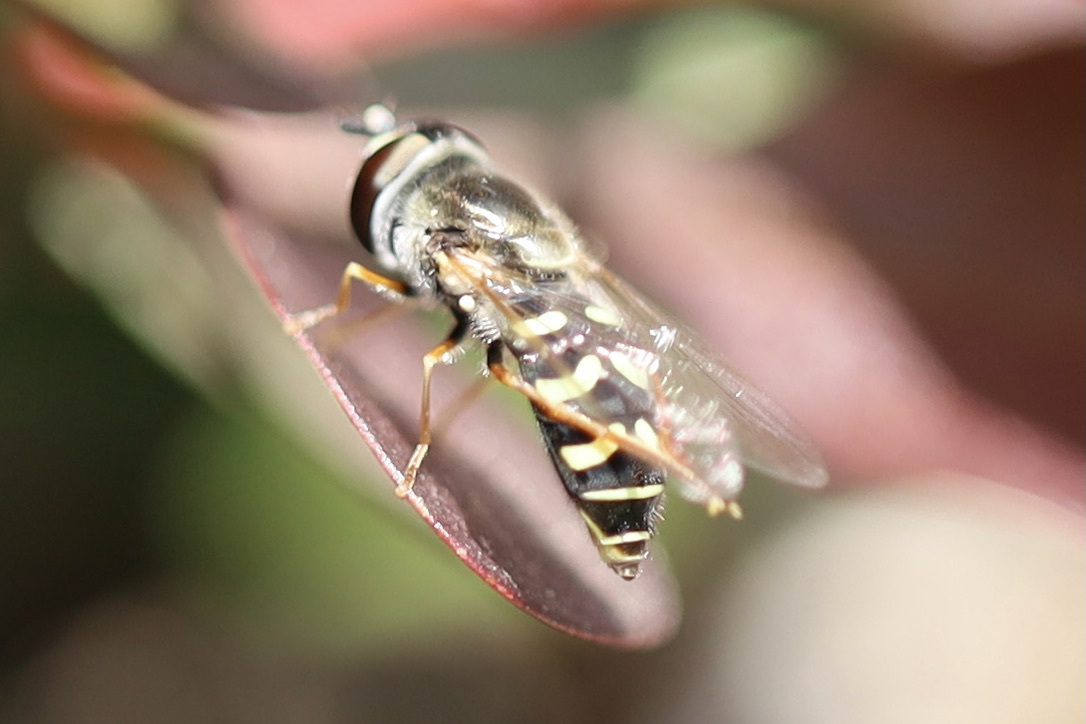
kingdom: Animalia
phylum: Arthropoda
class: Insecta
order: Diptera
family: Syrphidae
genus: Eupeodes
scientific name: Eupeodes volucris
